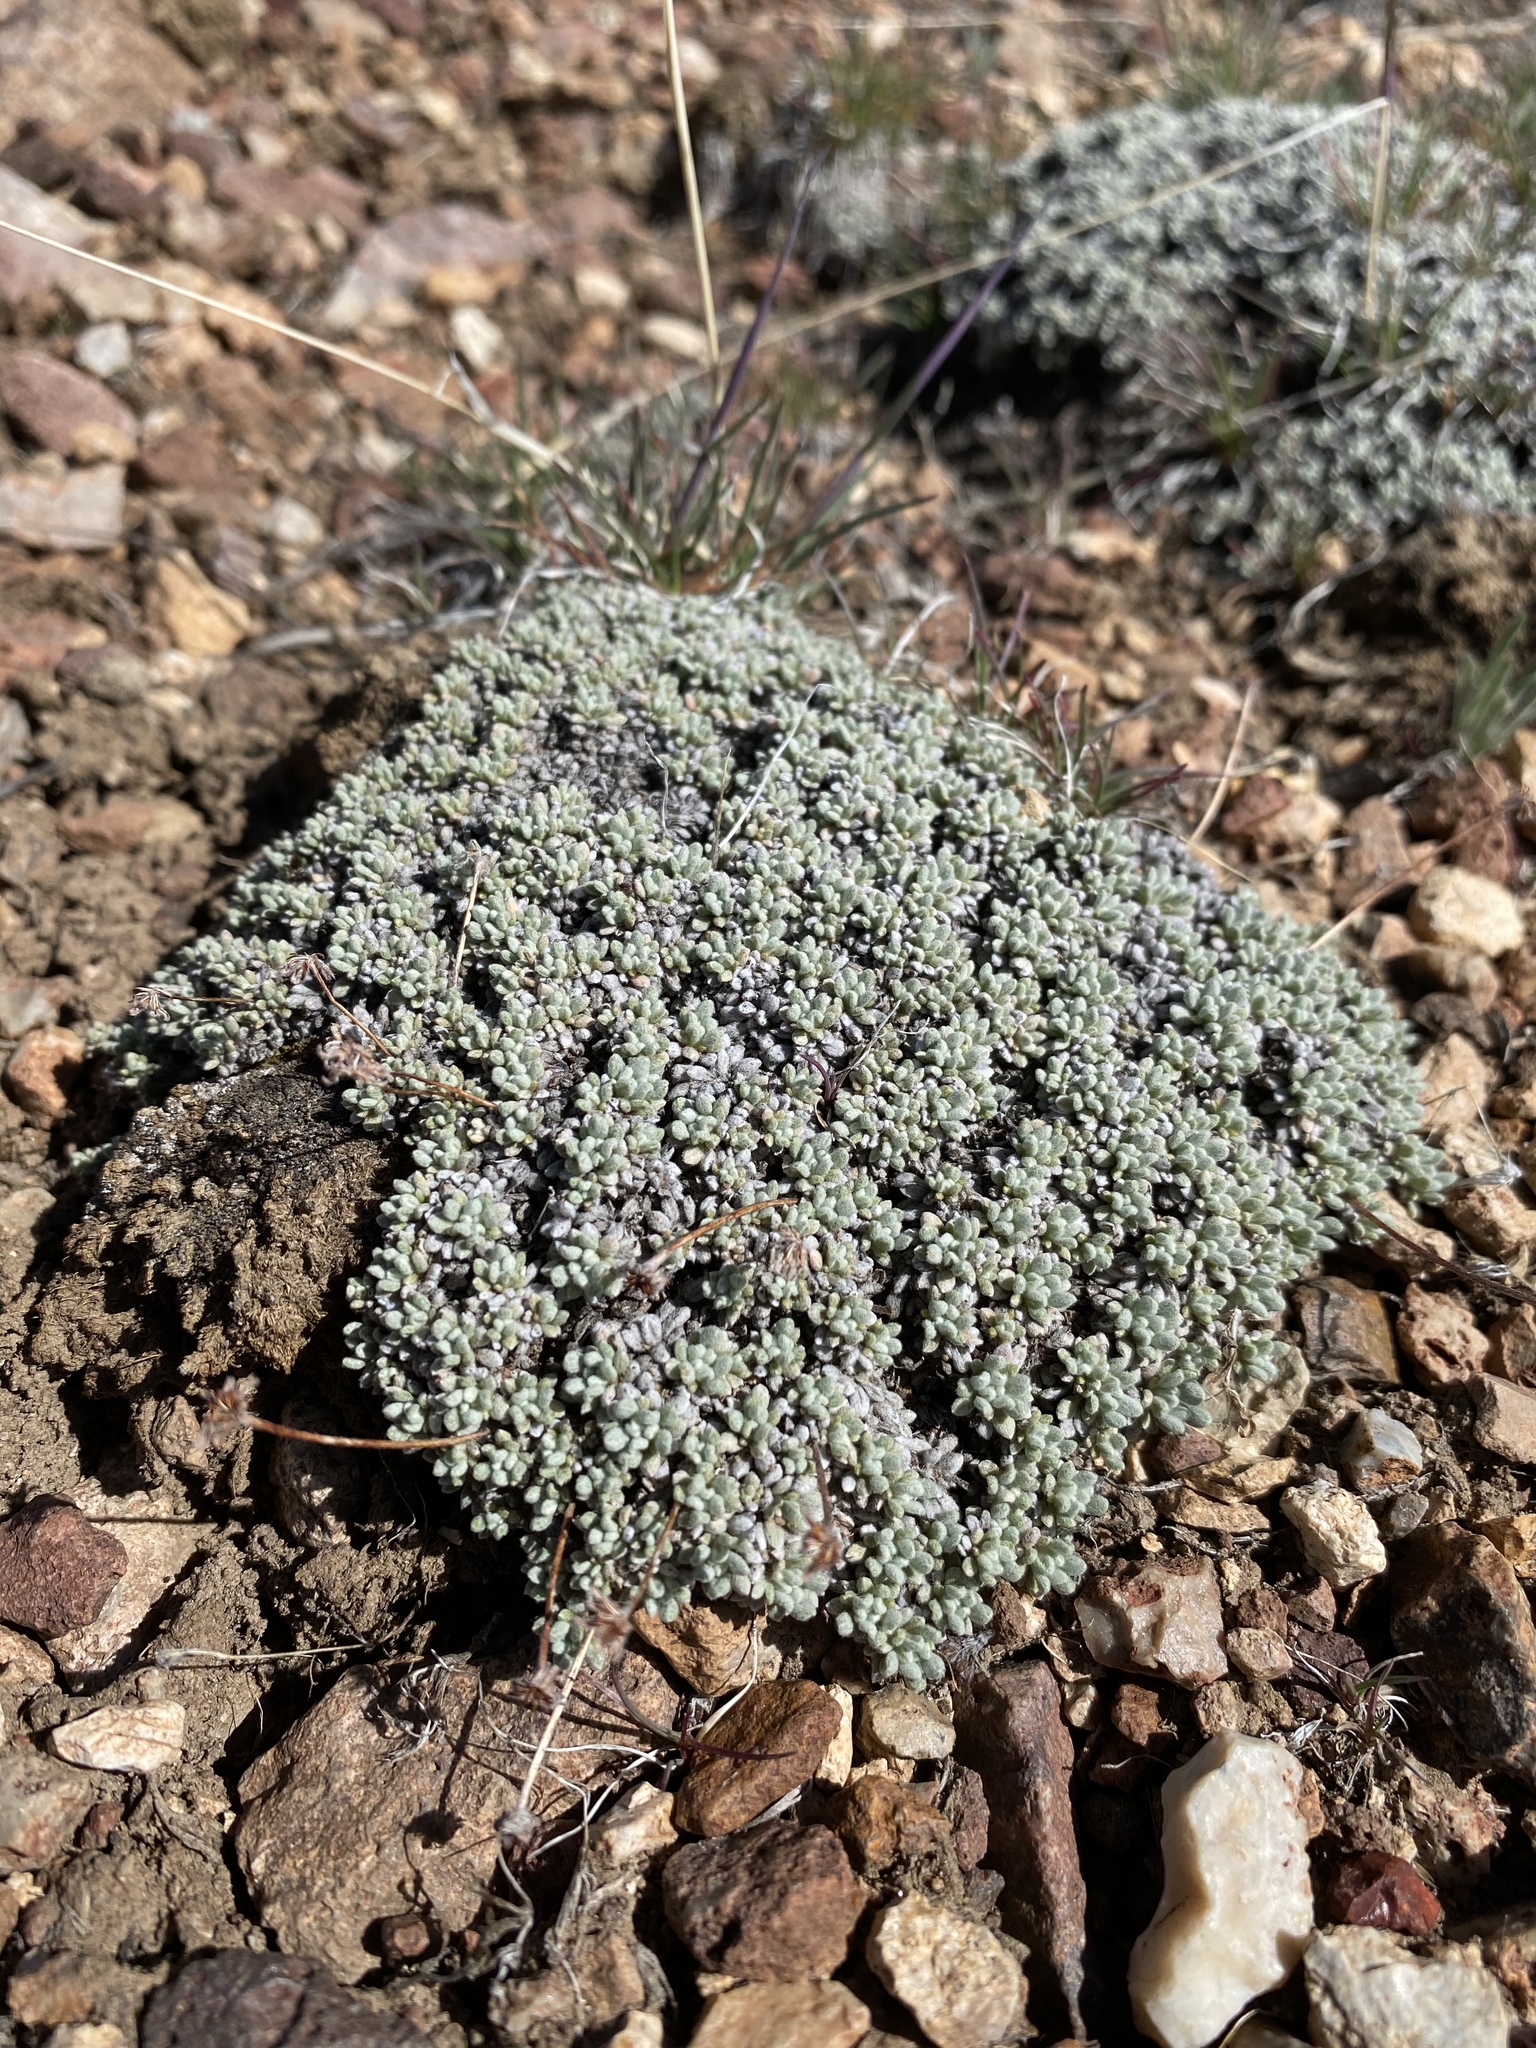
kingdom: Plantae
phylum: Tracheophyta
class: Magnoliopsida
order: Caryophyllales
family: Polygonaceae
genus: Eriogonum
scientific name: Eriogonum caespitosum
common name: Matted wild buckwheat
